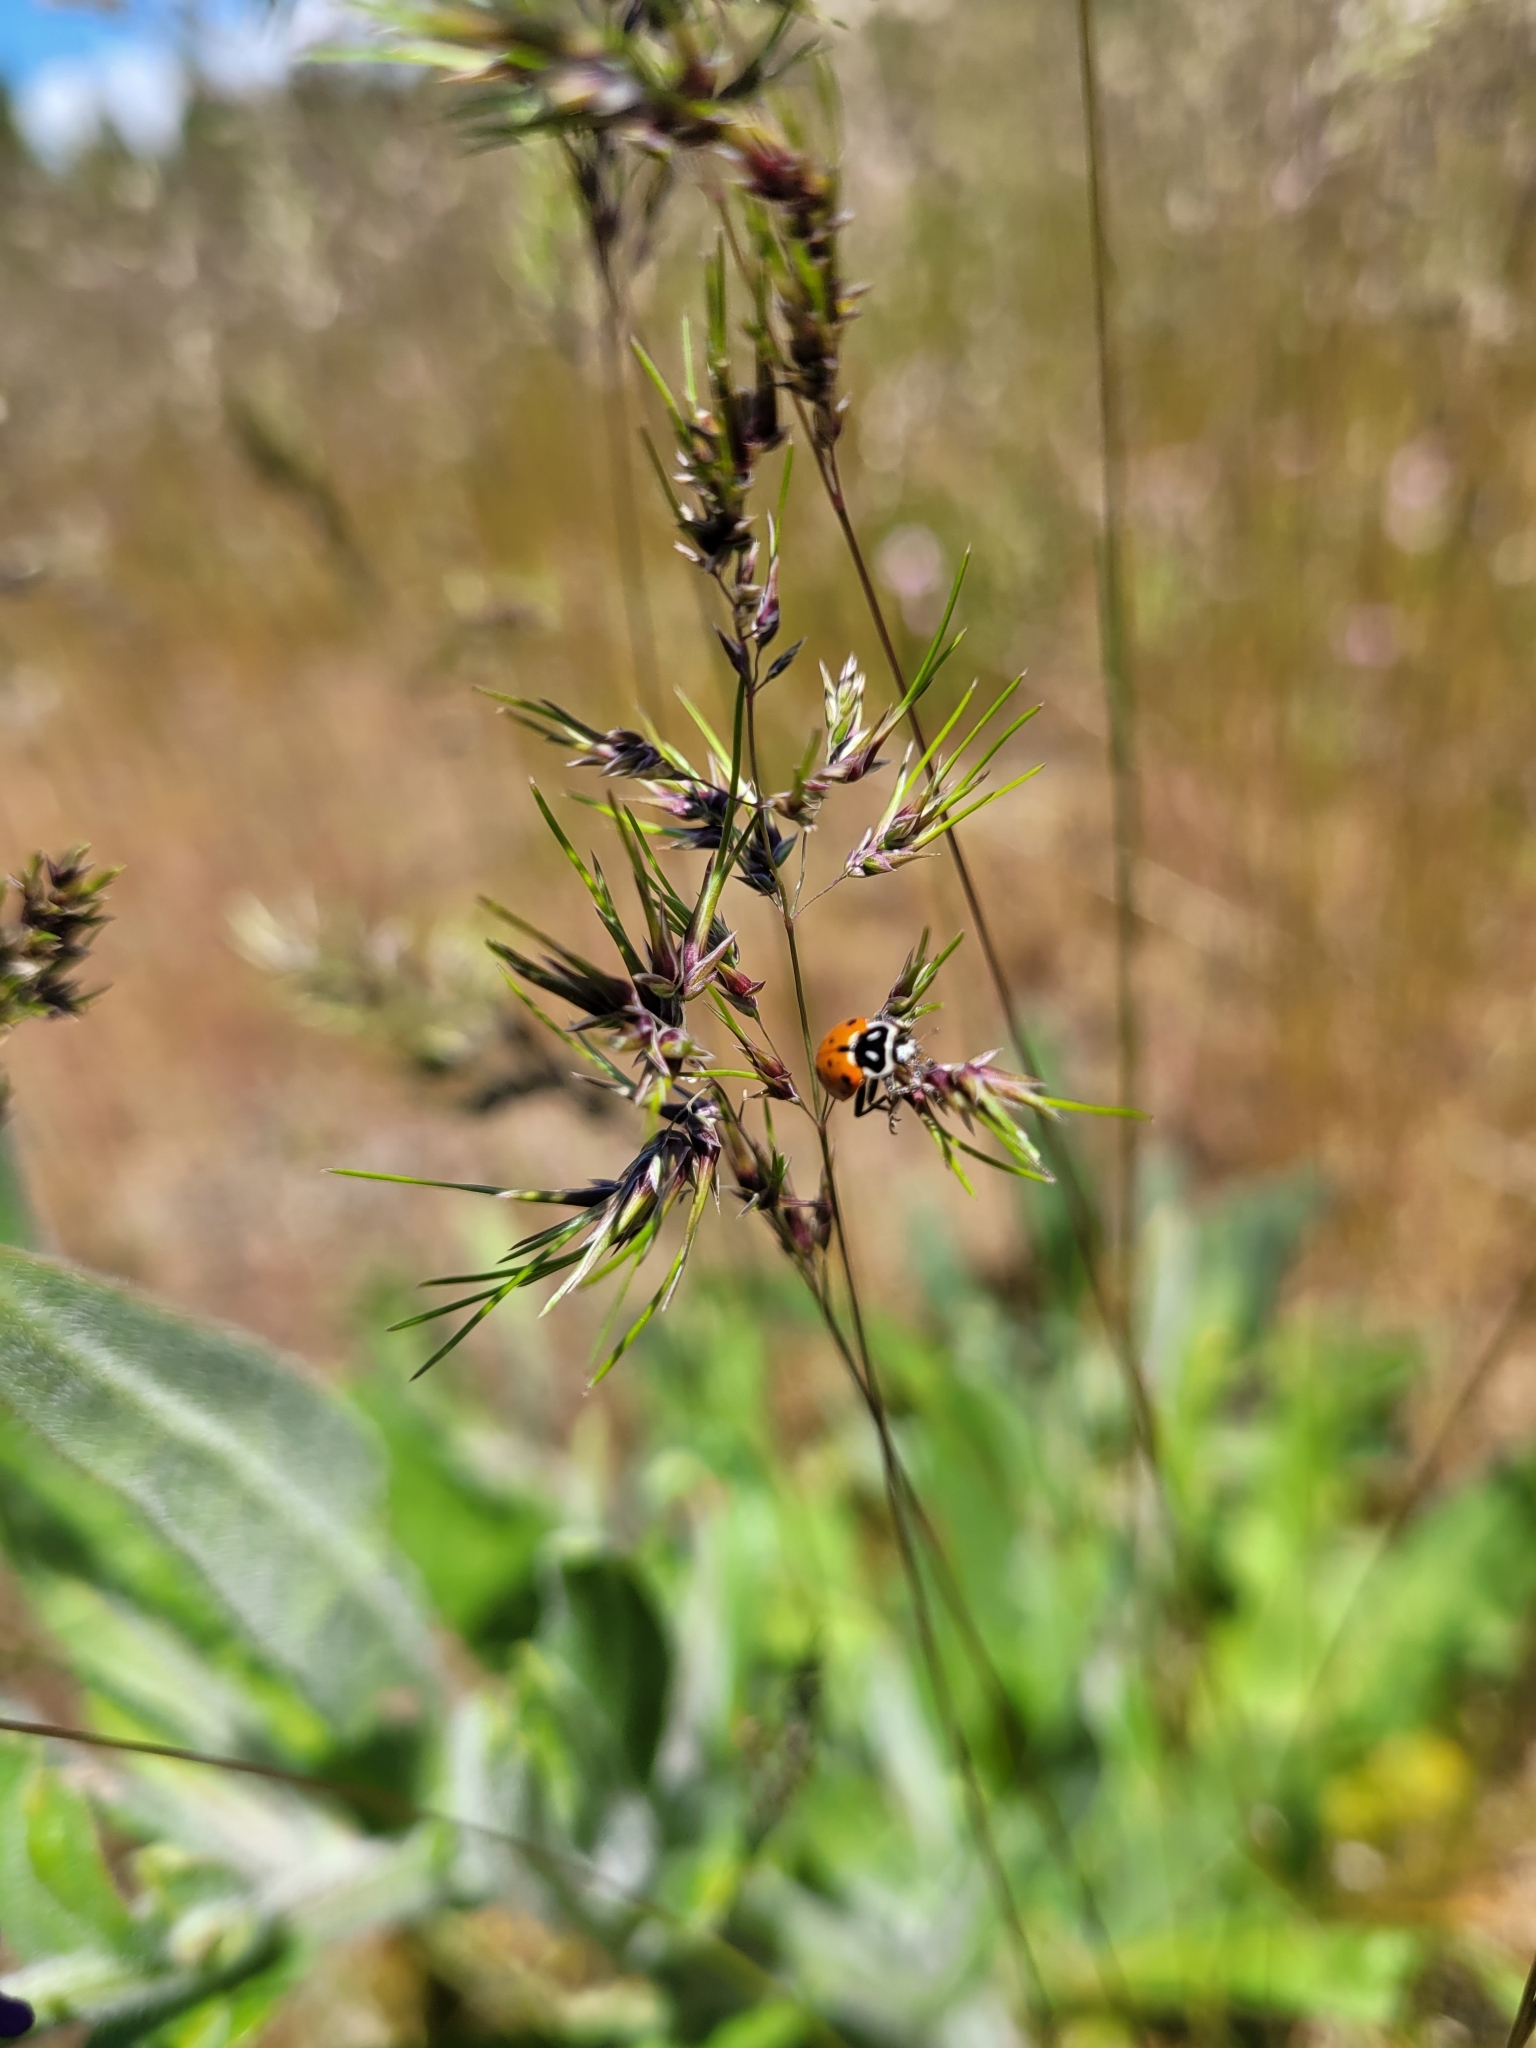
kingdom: Animalia
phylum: Arthropoda
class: Insecta
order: Coleoptera
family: Coccinellidae
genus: Hippodamia
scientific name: Hippodamia convergens
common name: Convergent lady beetle
